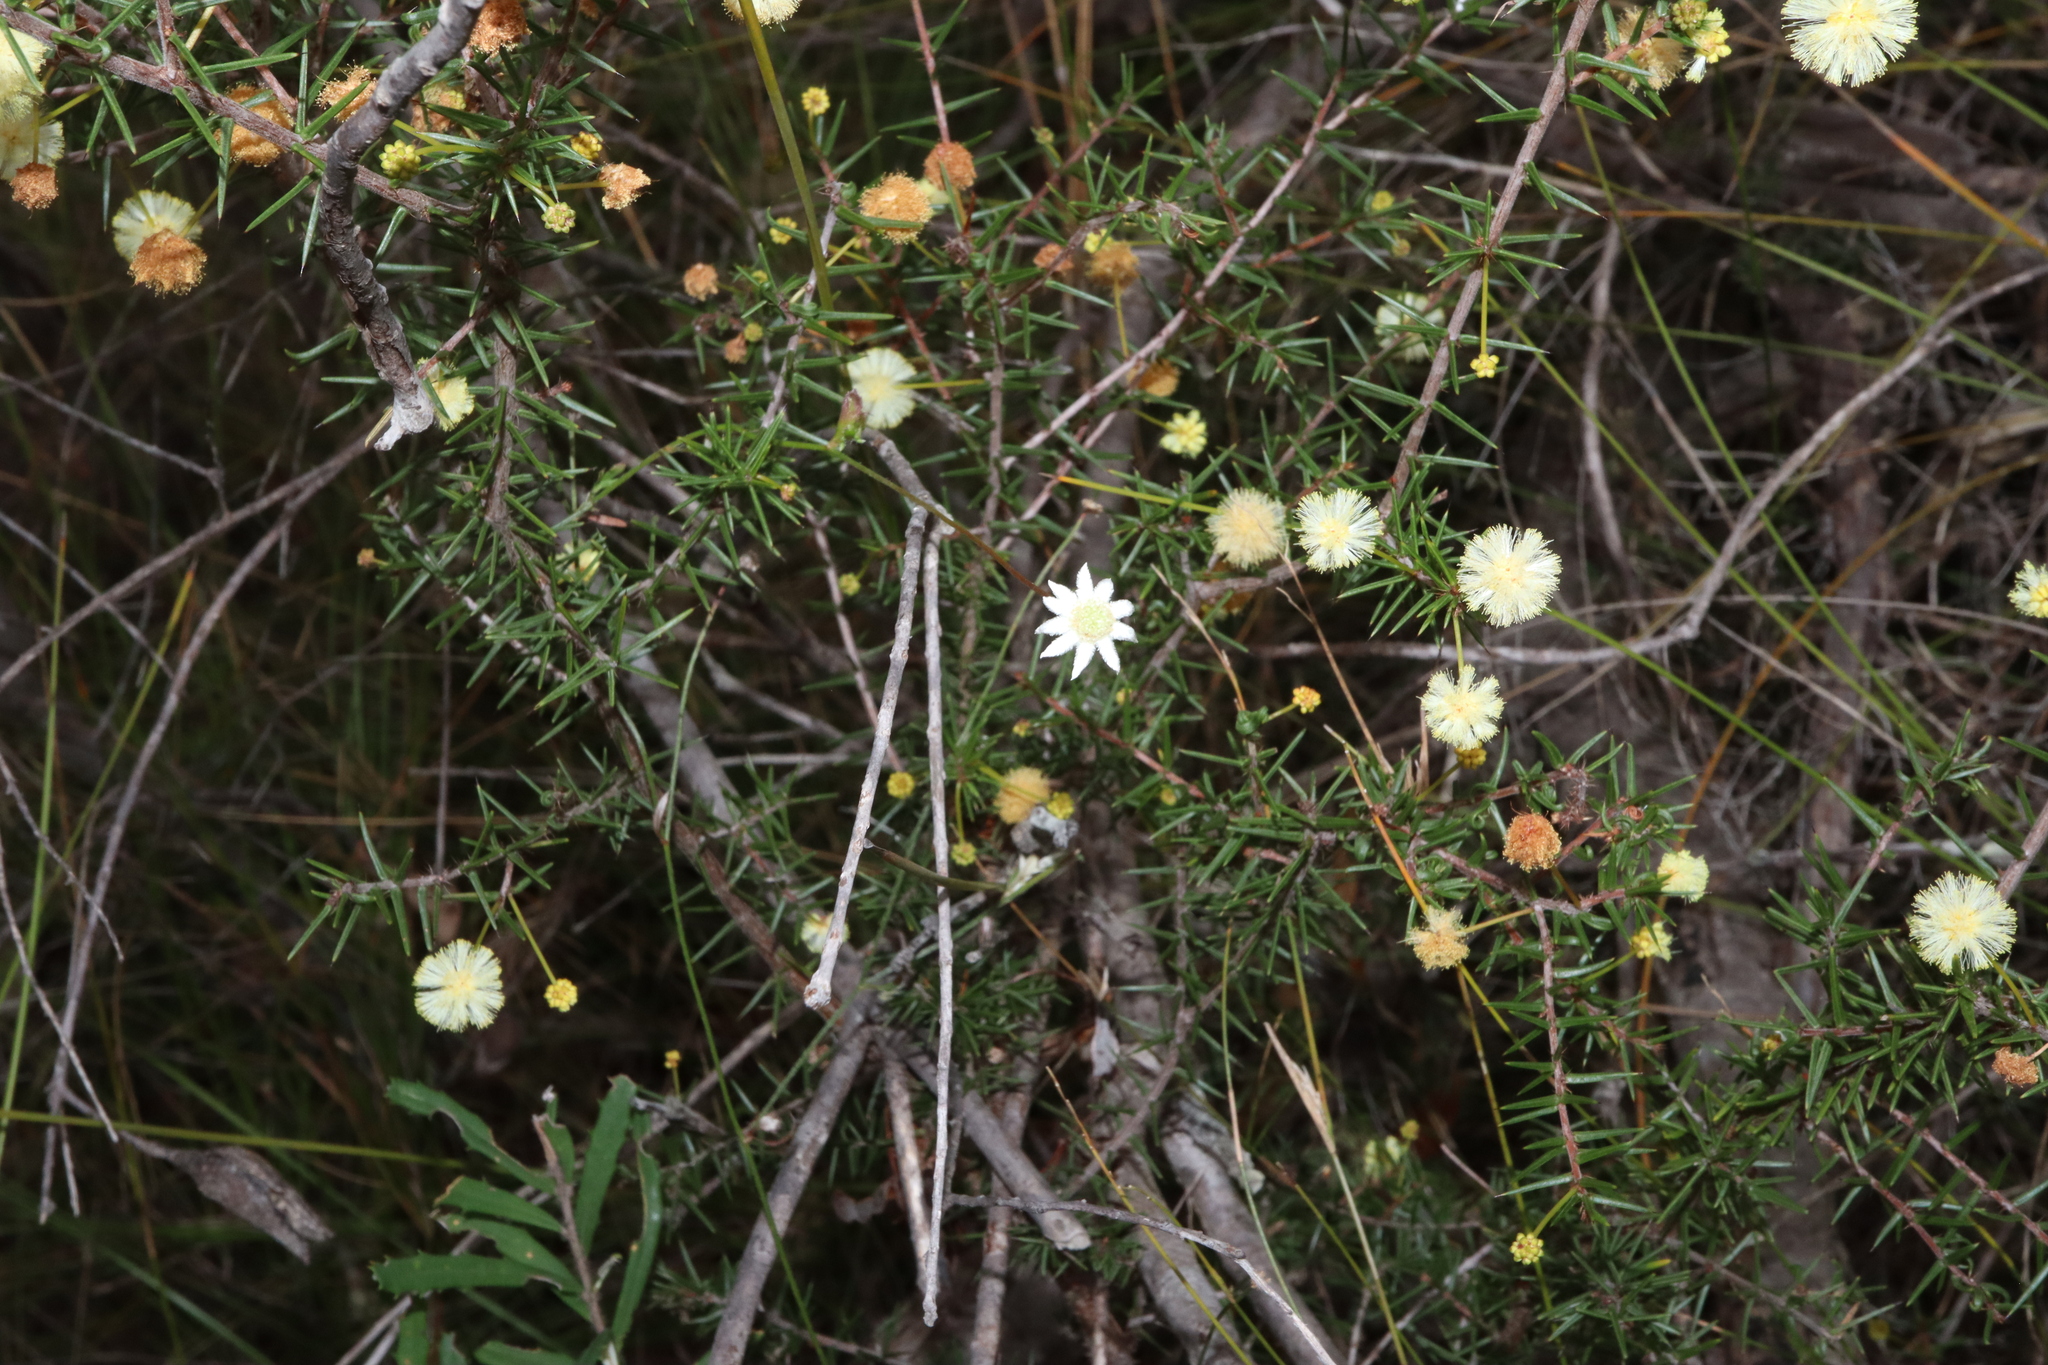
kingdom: Plantae
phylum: Tracheophyta
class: Magnoliopsida
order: Apiales
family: Apiaceae
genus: Actinotus
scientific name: Actinotus minor
